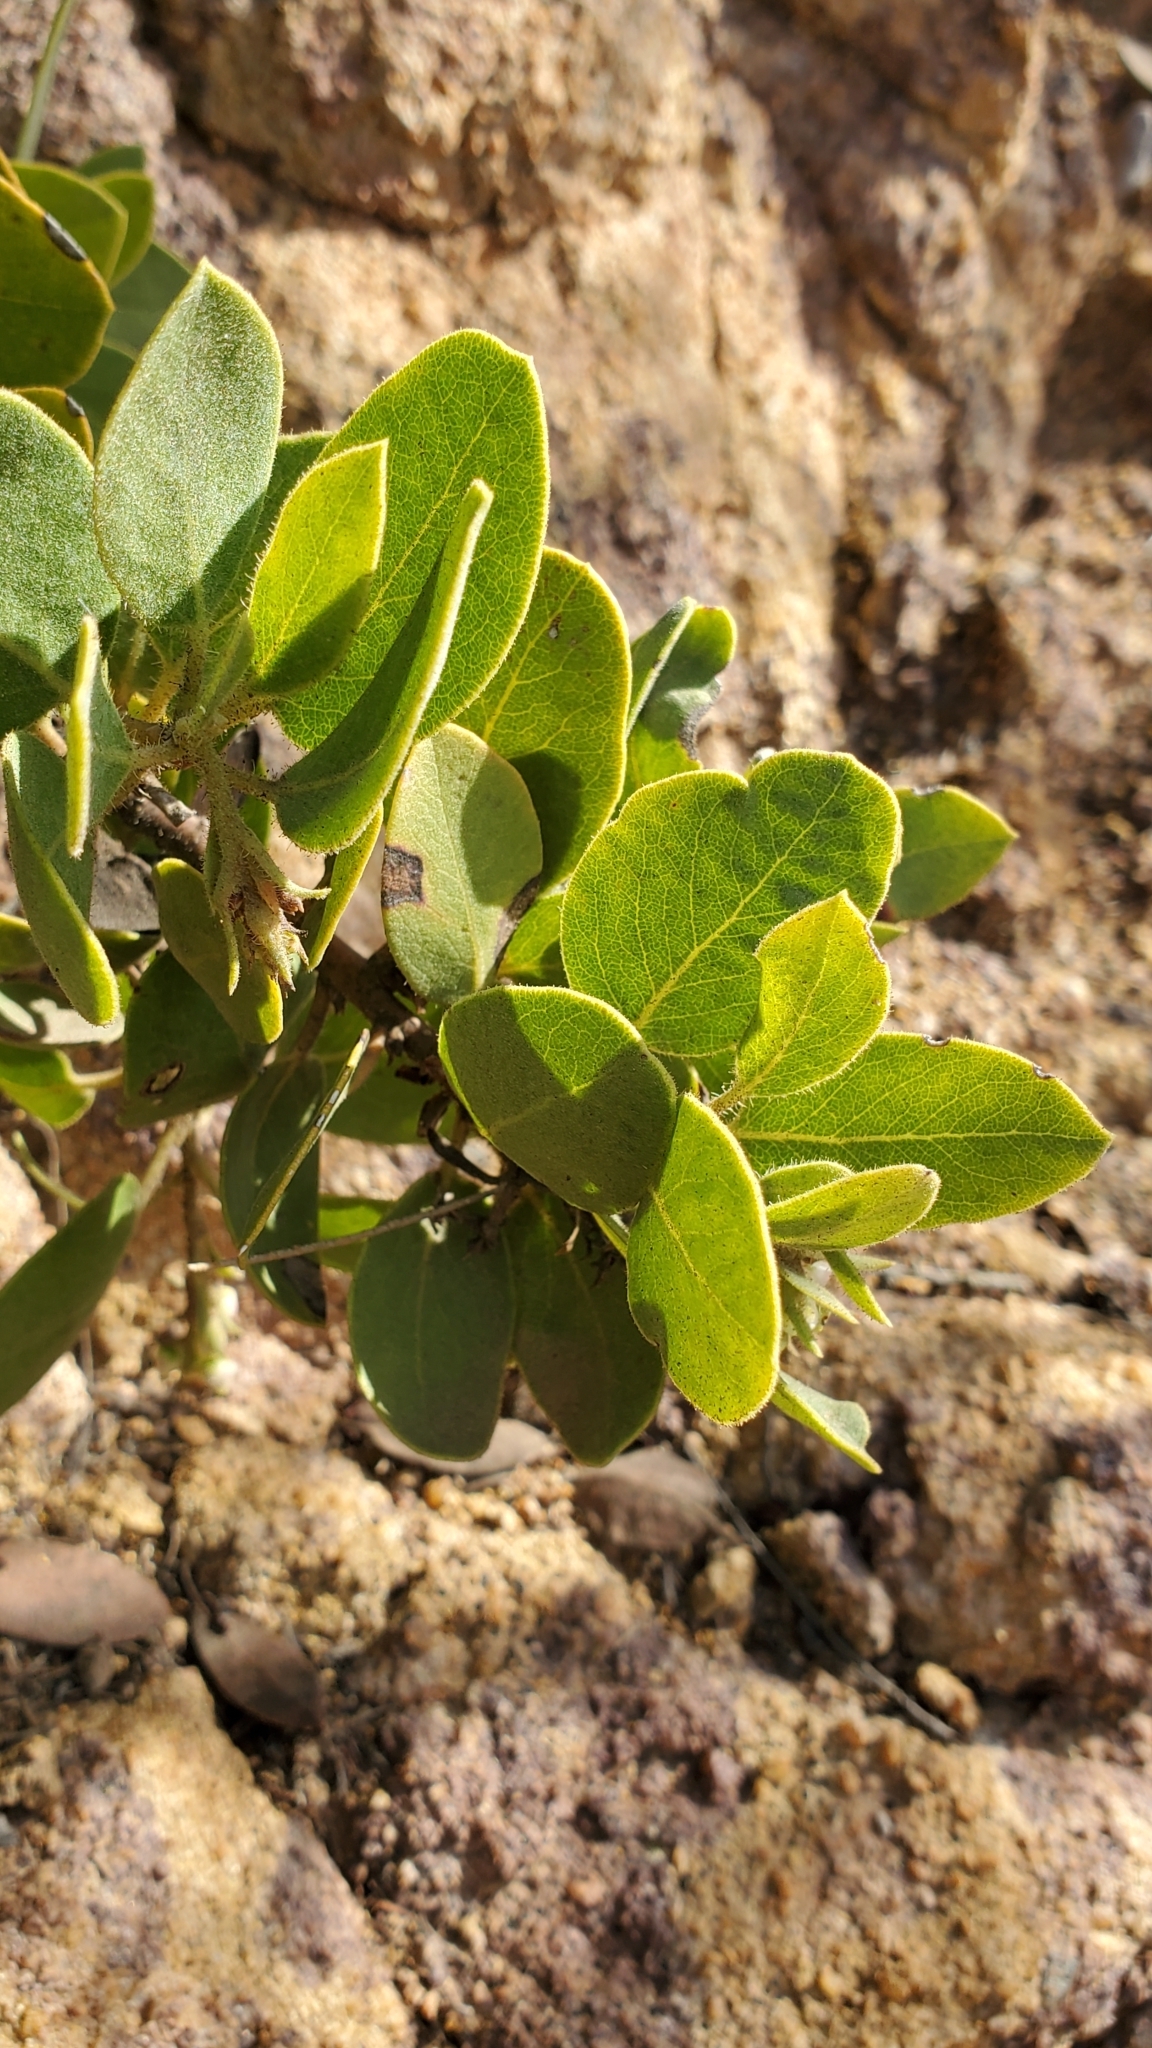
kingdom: Plantae
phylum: Tracheophyta
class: Magnoliopsida
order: Ericales
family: Ericaceae
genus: Arctostaphylos
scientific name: Arctostaphylos glandulosa
